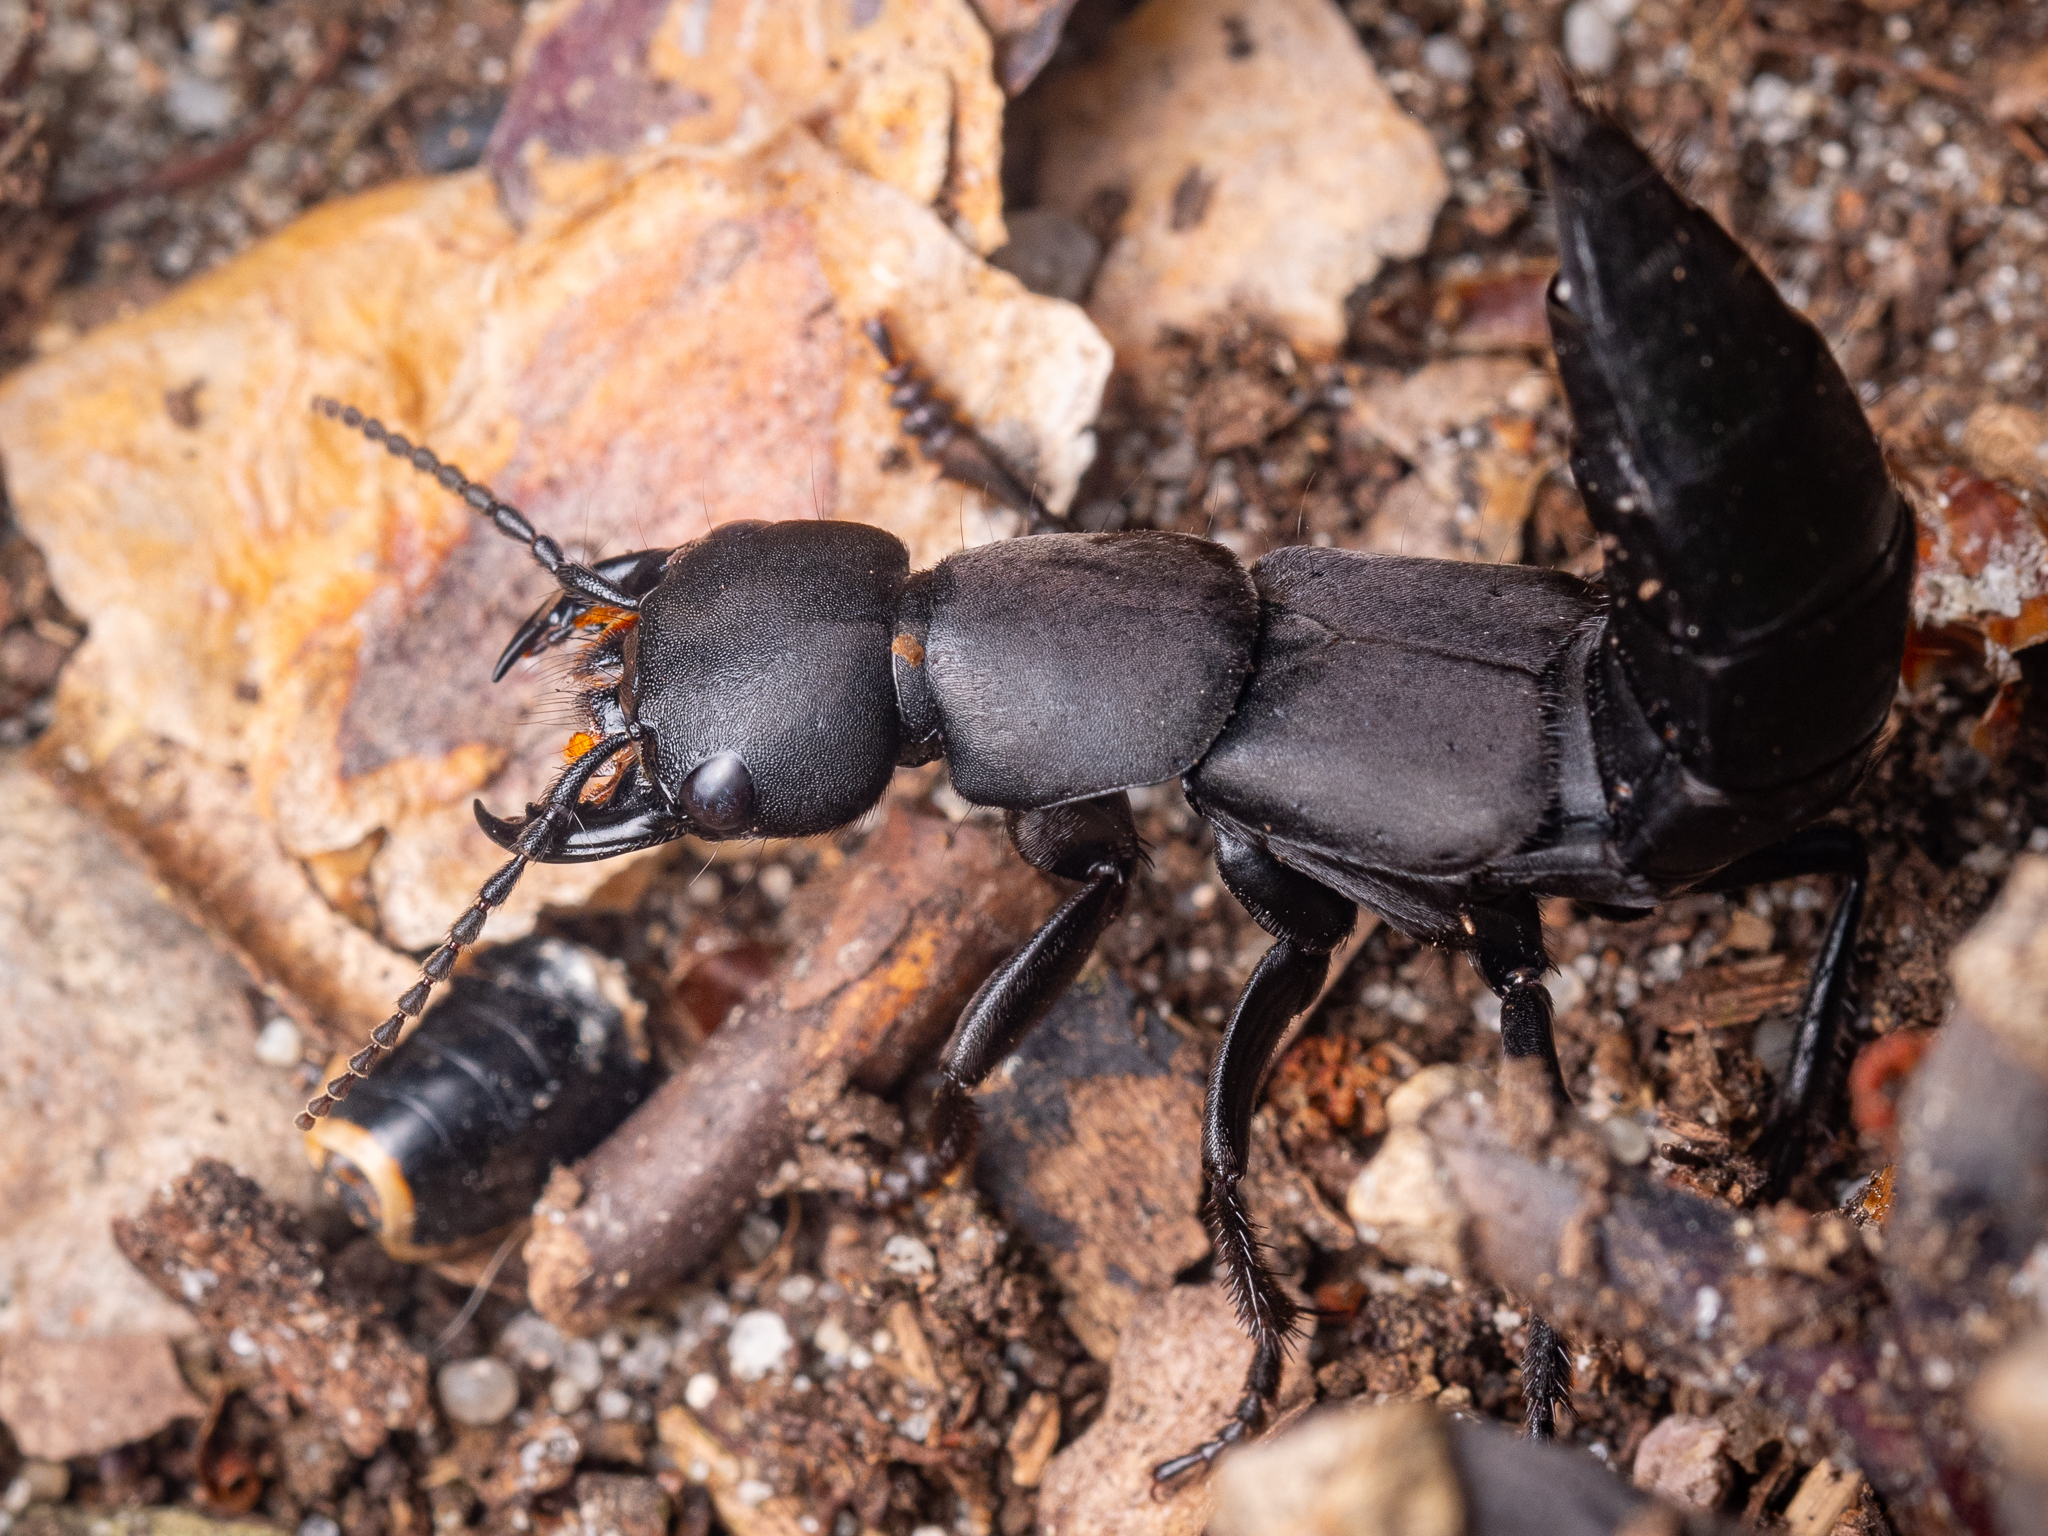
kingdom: Animalia
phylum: Arthropoda
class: Insecta
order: Coleoptera
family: Staphylinidae
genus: Ocypus
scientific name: Ocypus olens
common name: Devil's coach-horse
